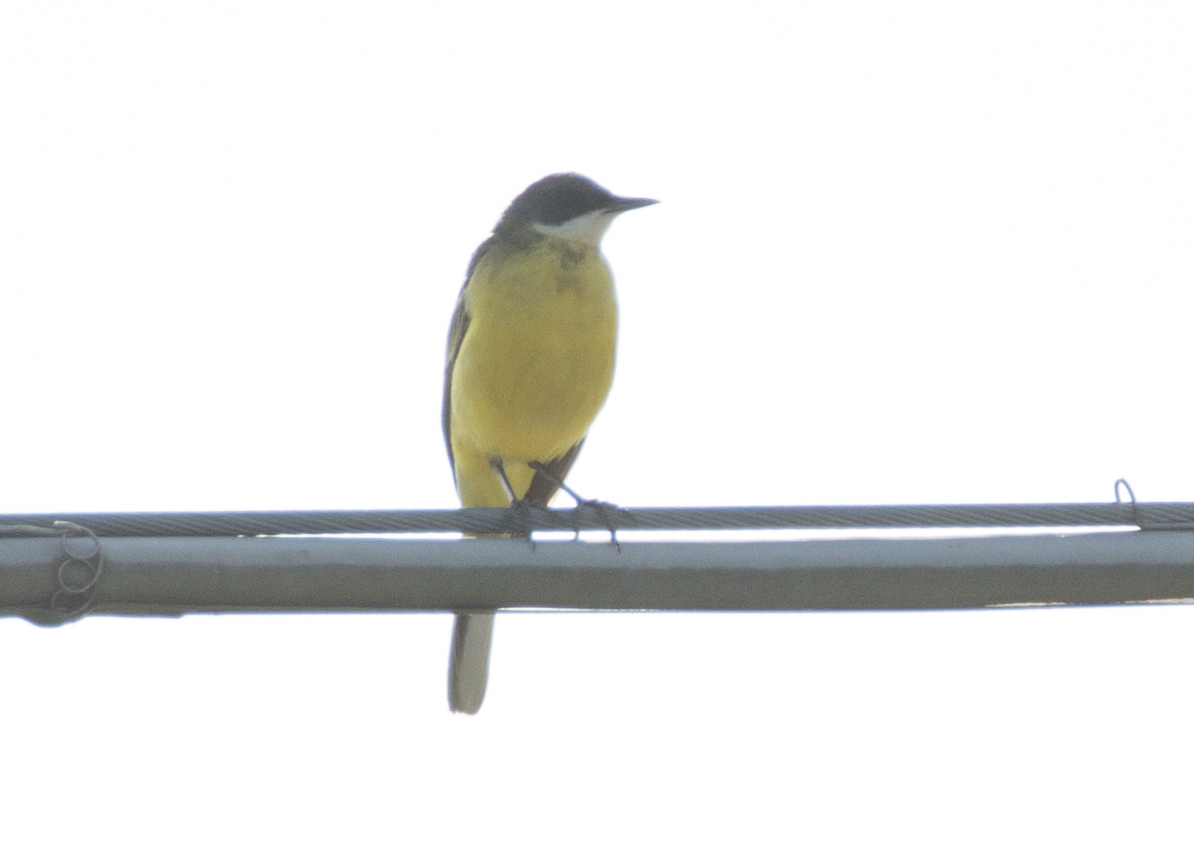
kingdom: Animalia
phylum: Chordata
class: Aves
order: Passeriformes
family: Motacillidae
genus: Motacilla
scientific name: Motacilla flava
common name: Western yellow wagtail
